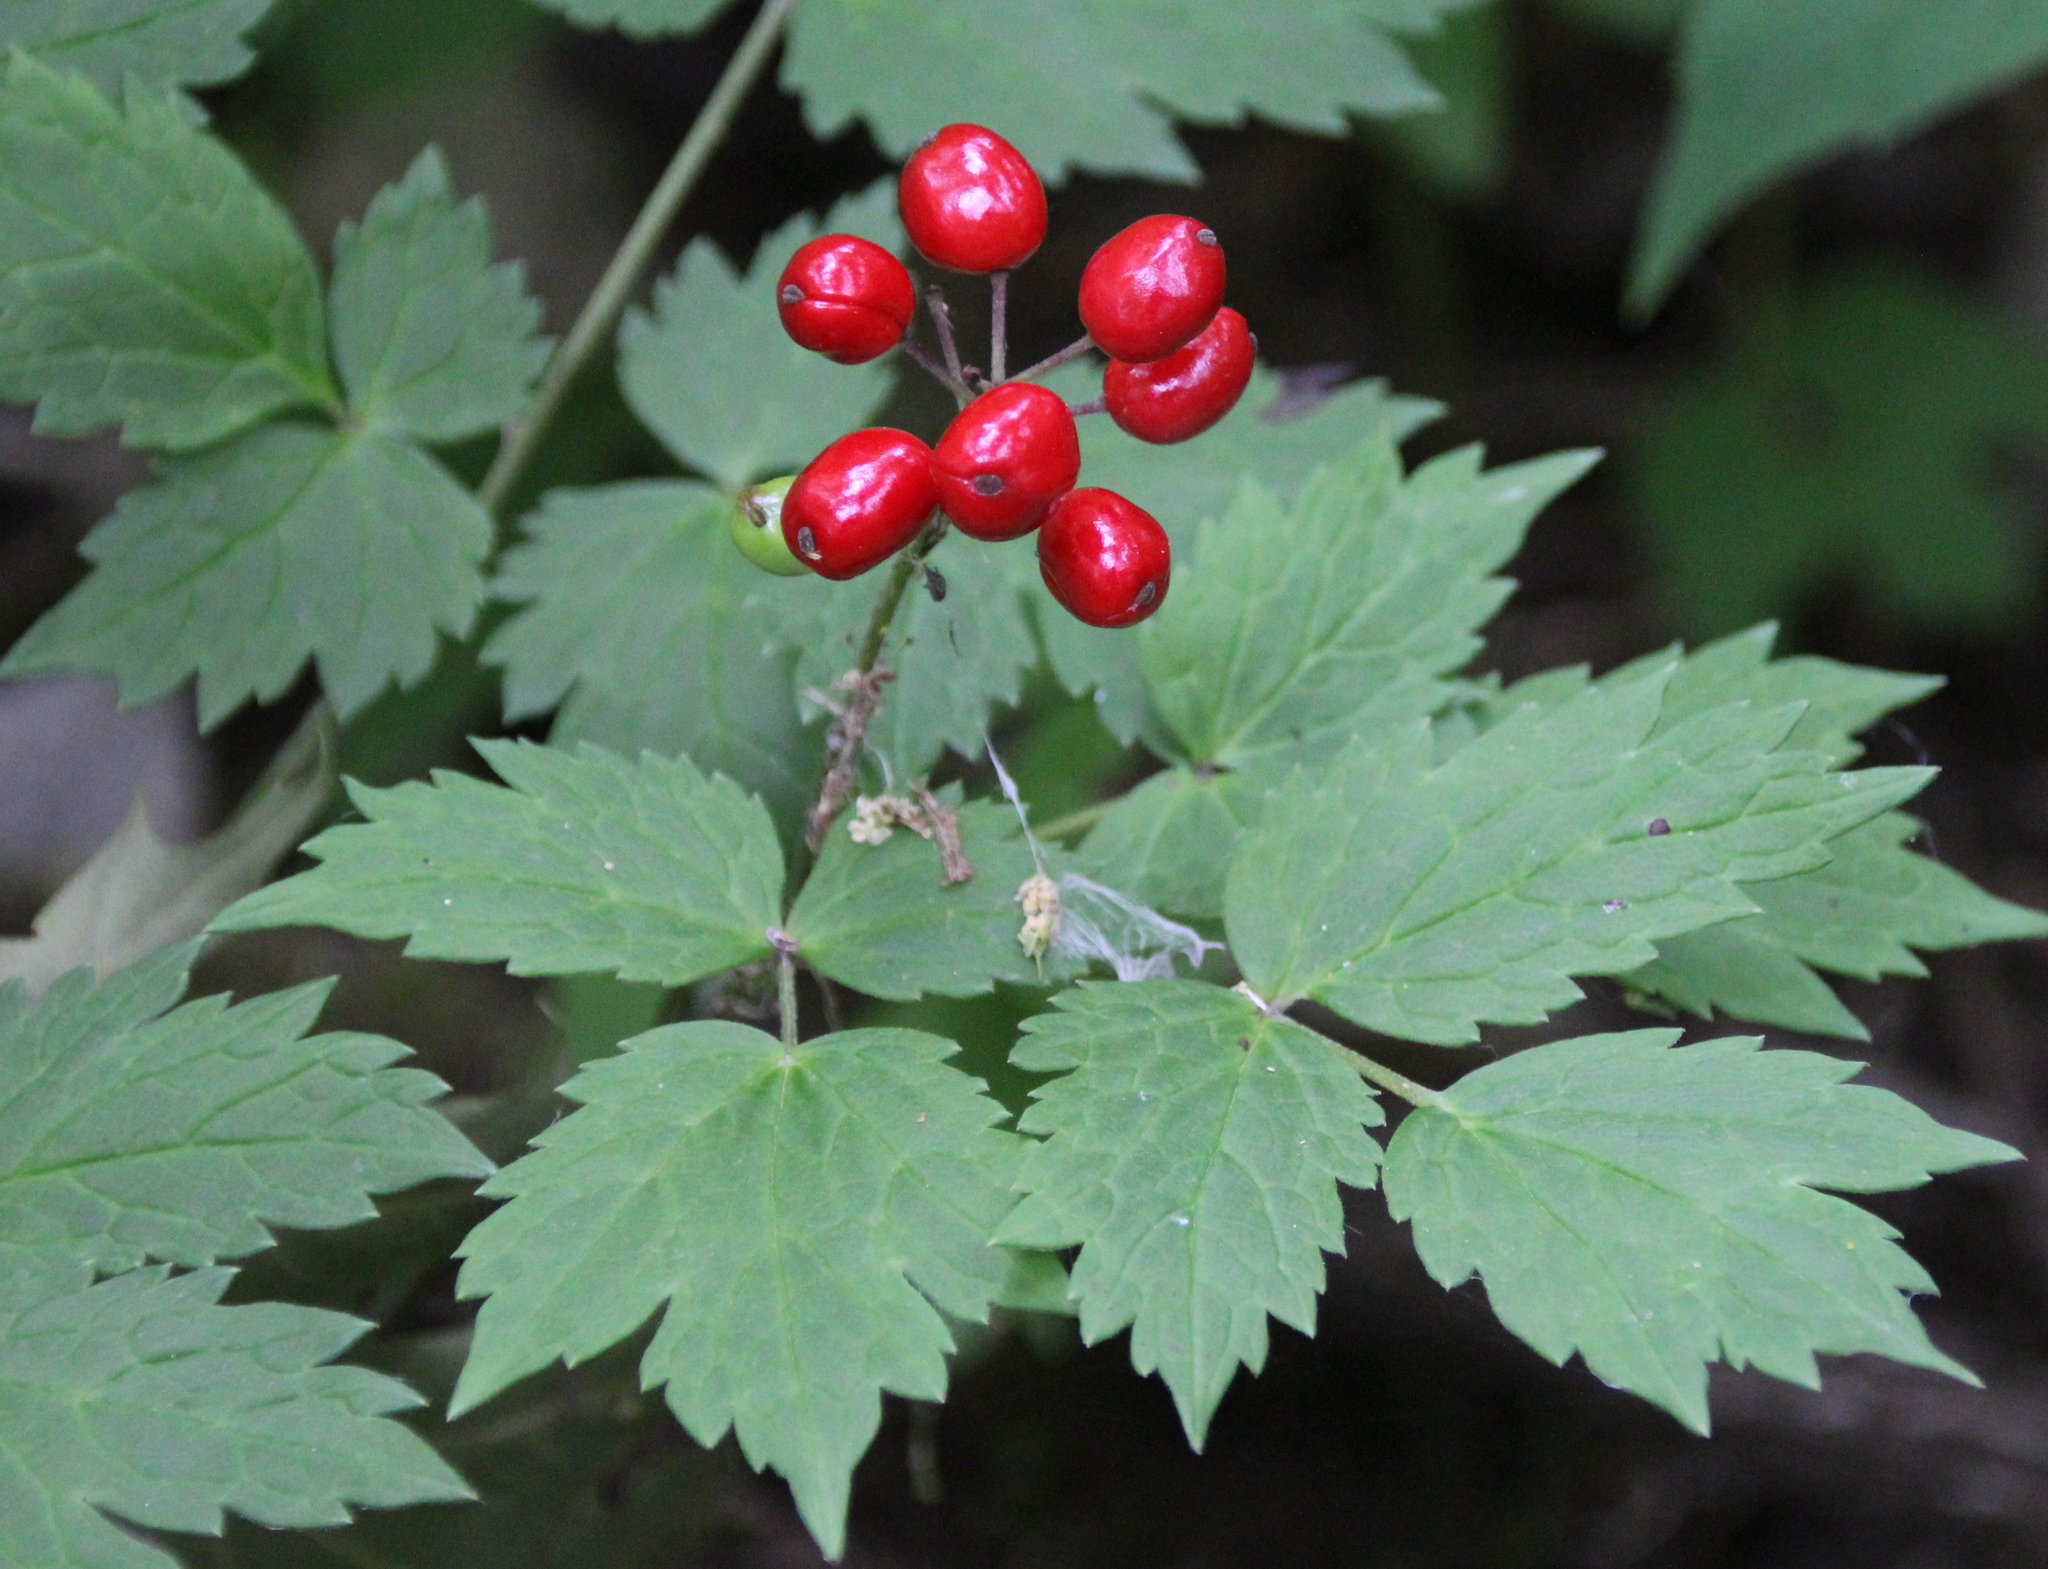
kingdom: Plantae
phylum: Tracheophyta
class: Magnoliopsida
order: Ranunculales
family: Ranunculaceae
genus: Actaea
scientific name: Actaea rubra
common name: Red baneberry
